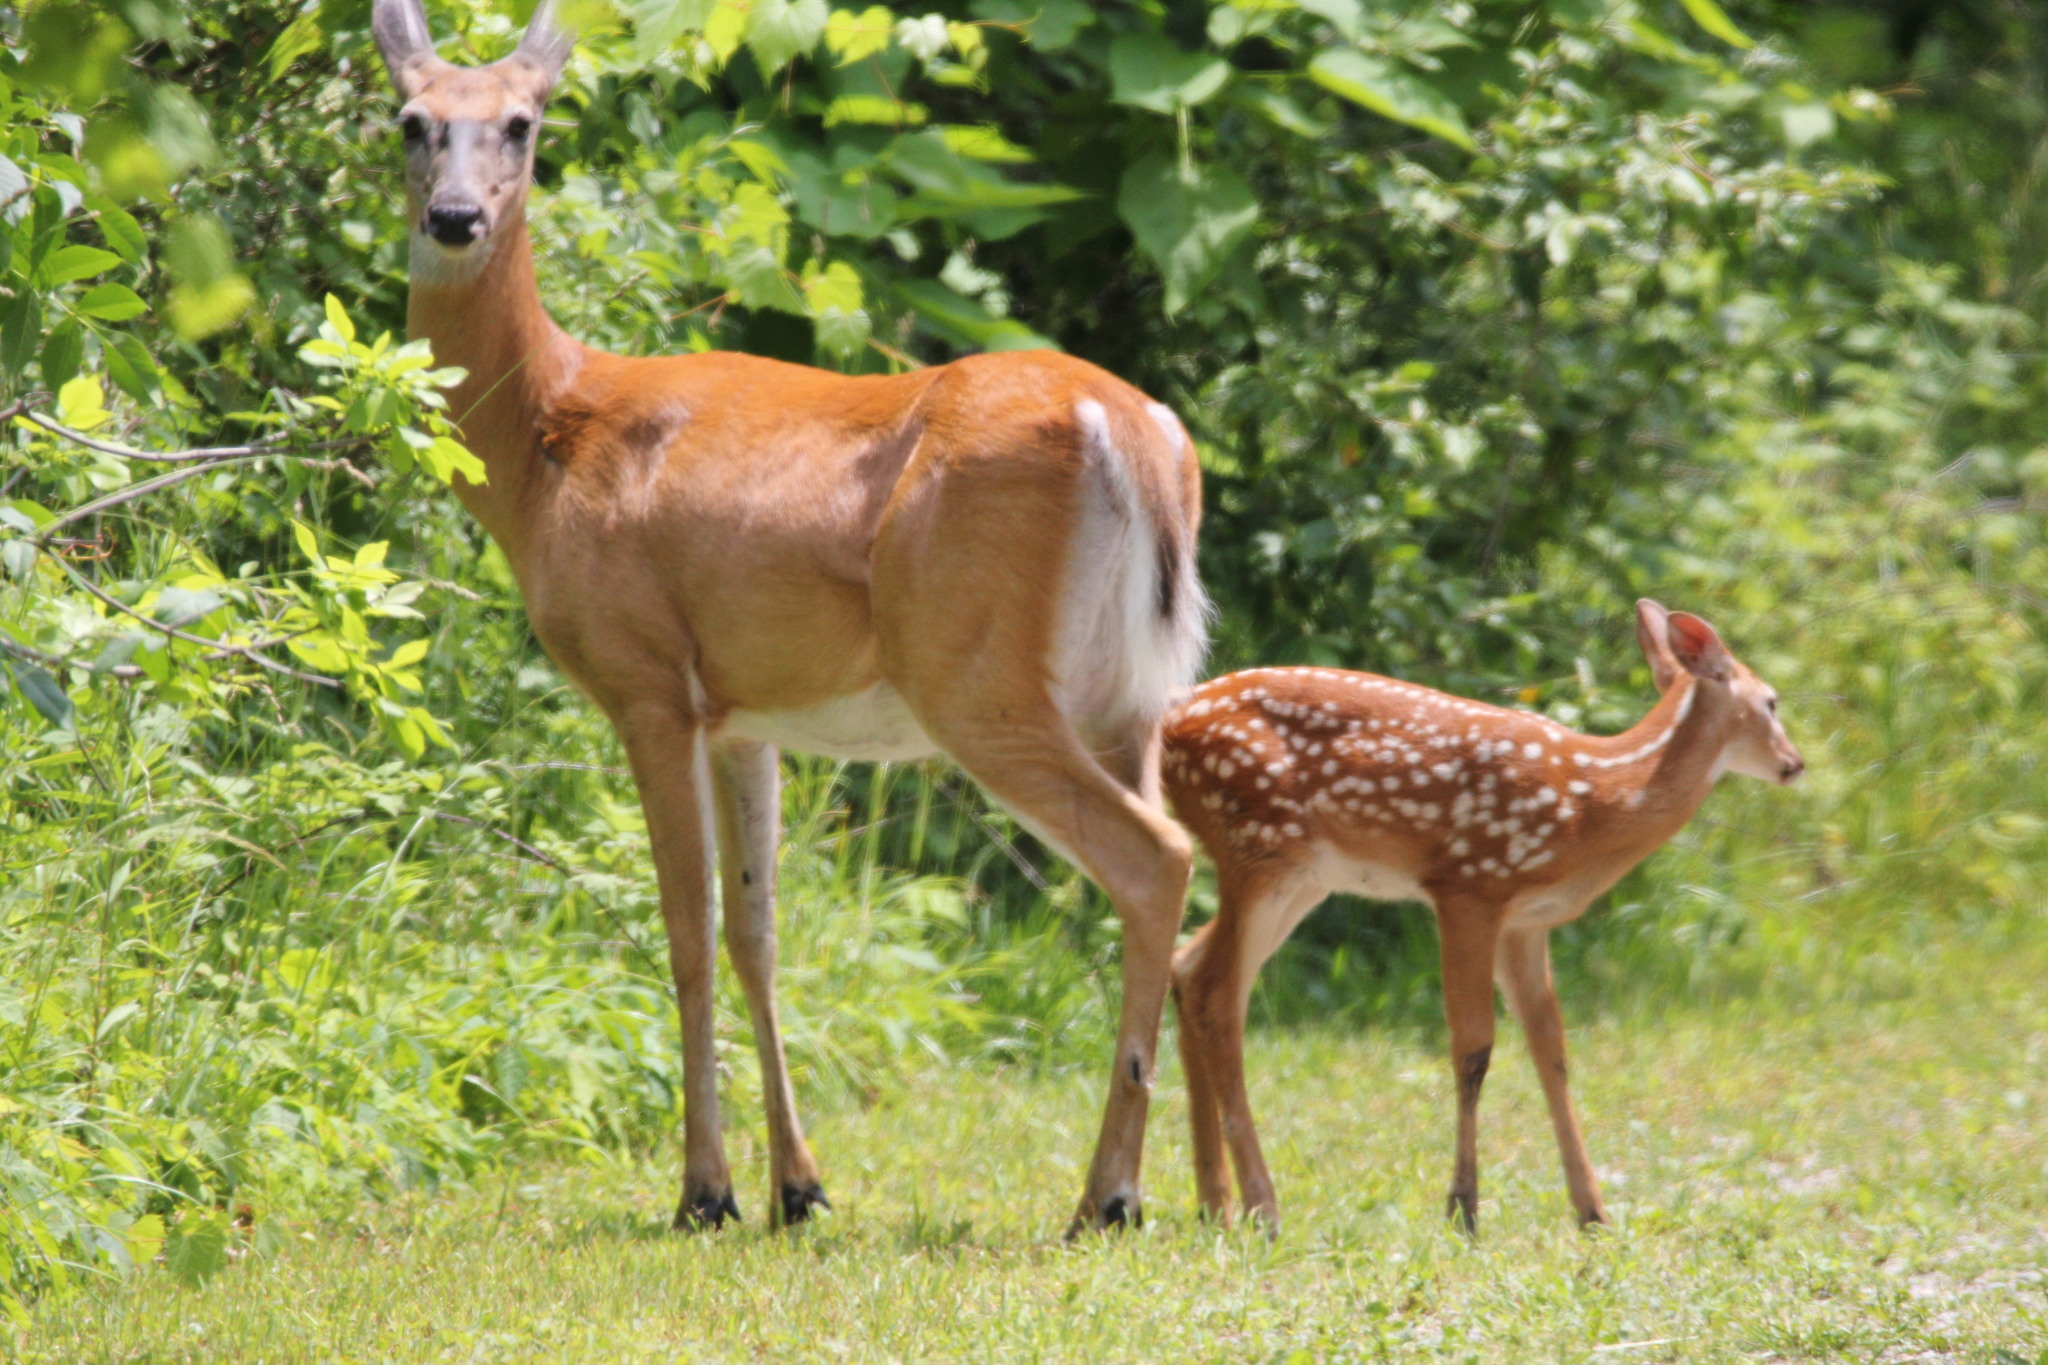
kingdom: Animalia
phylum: Chordata
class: Mammalia
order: Artiodactyla
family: Cervidae
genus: Odocoileus
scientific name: Odocoileus virginianus
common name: White-tailed deer
